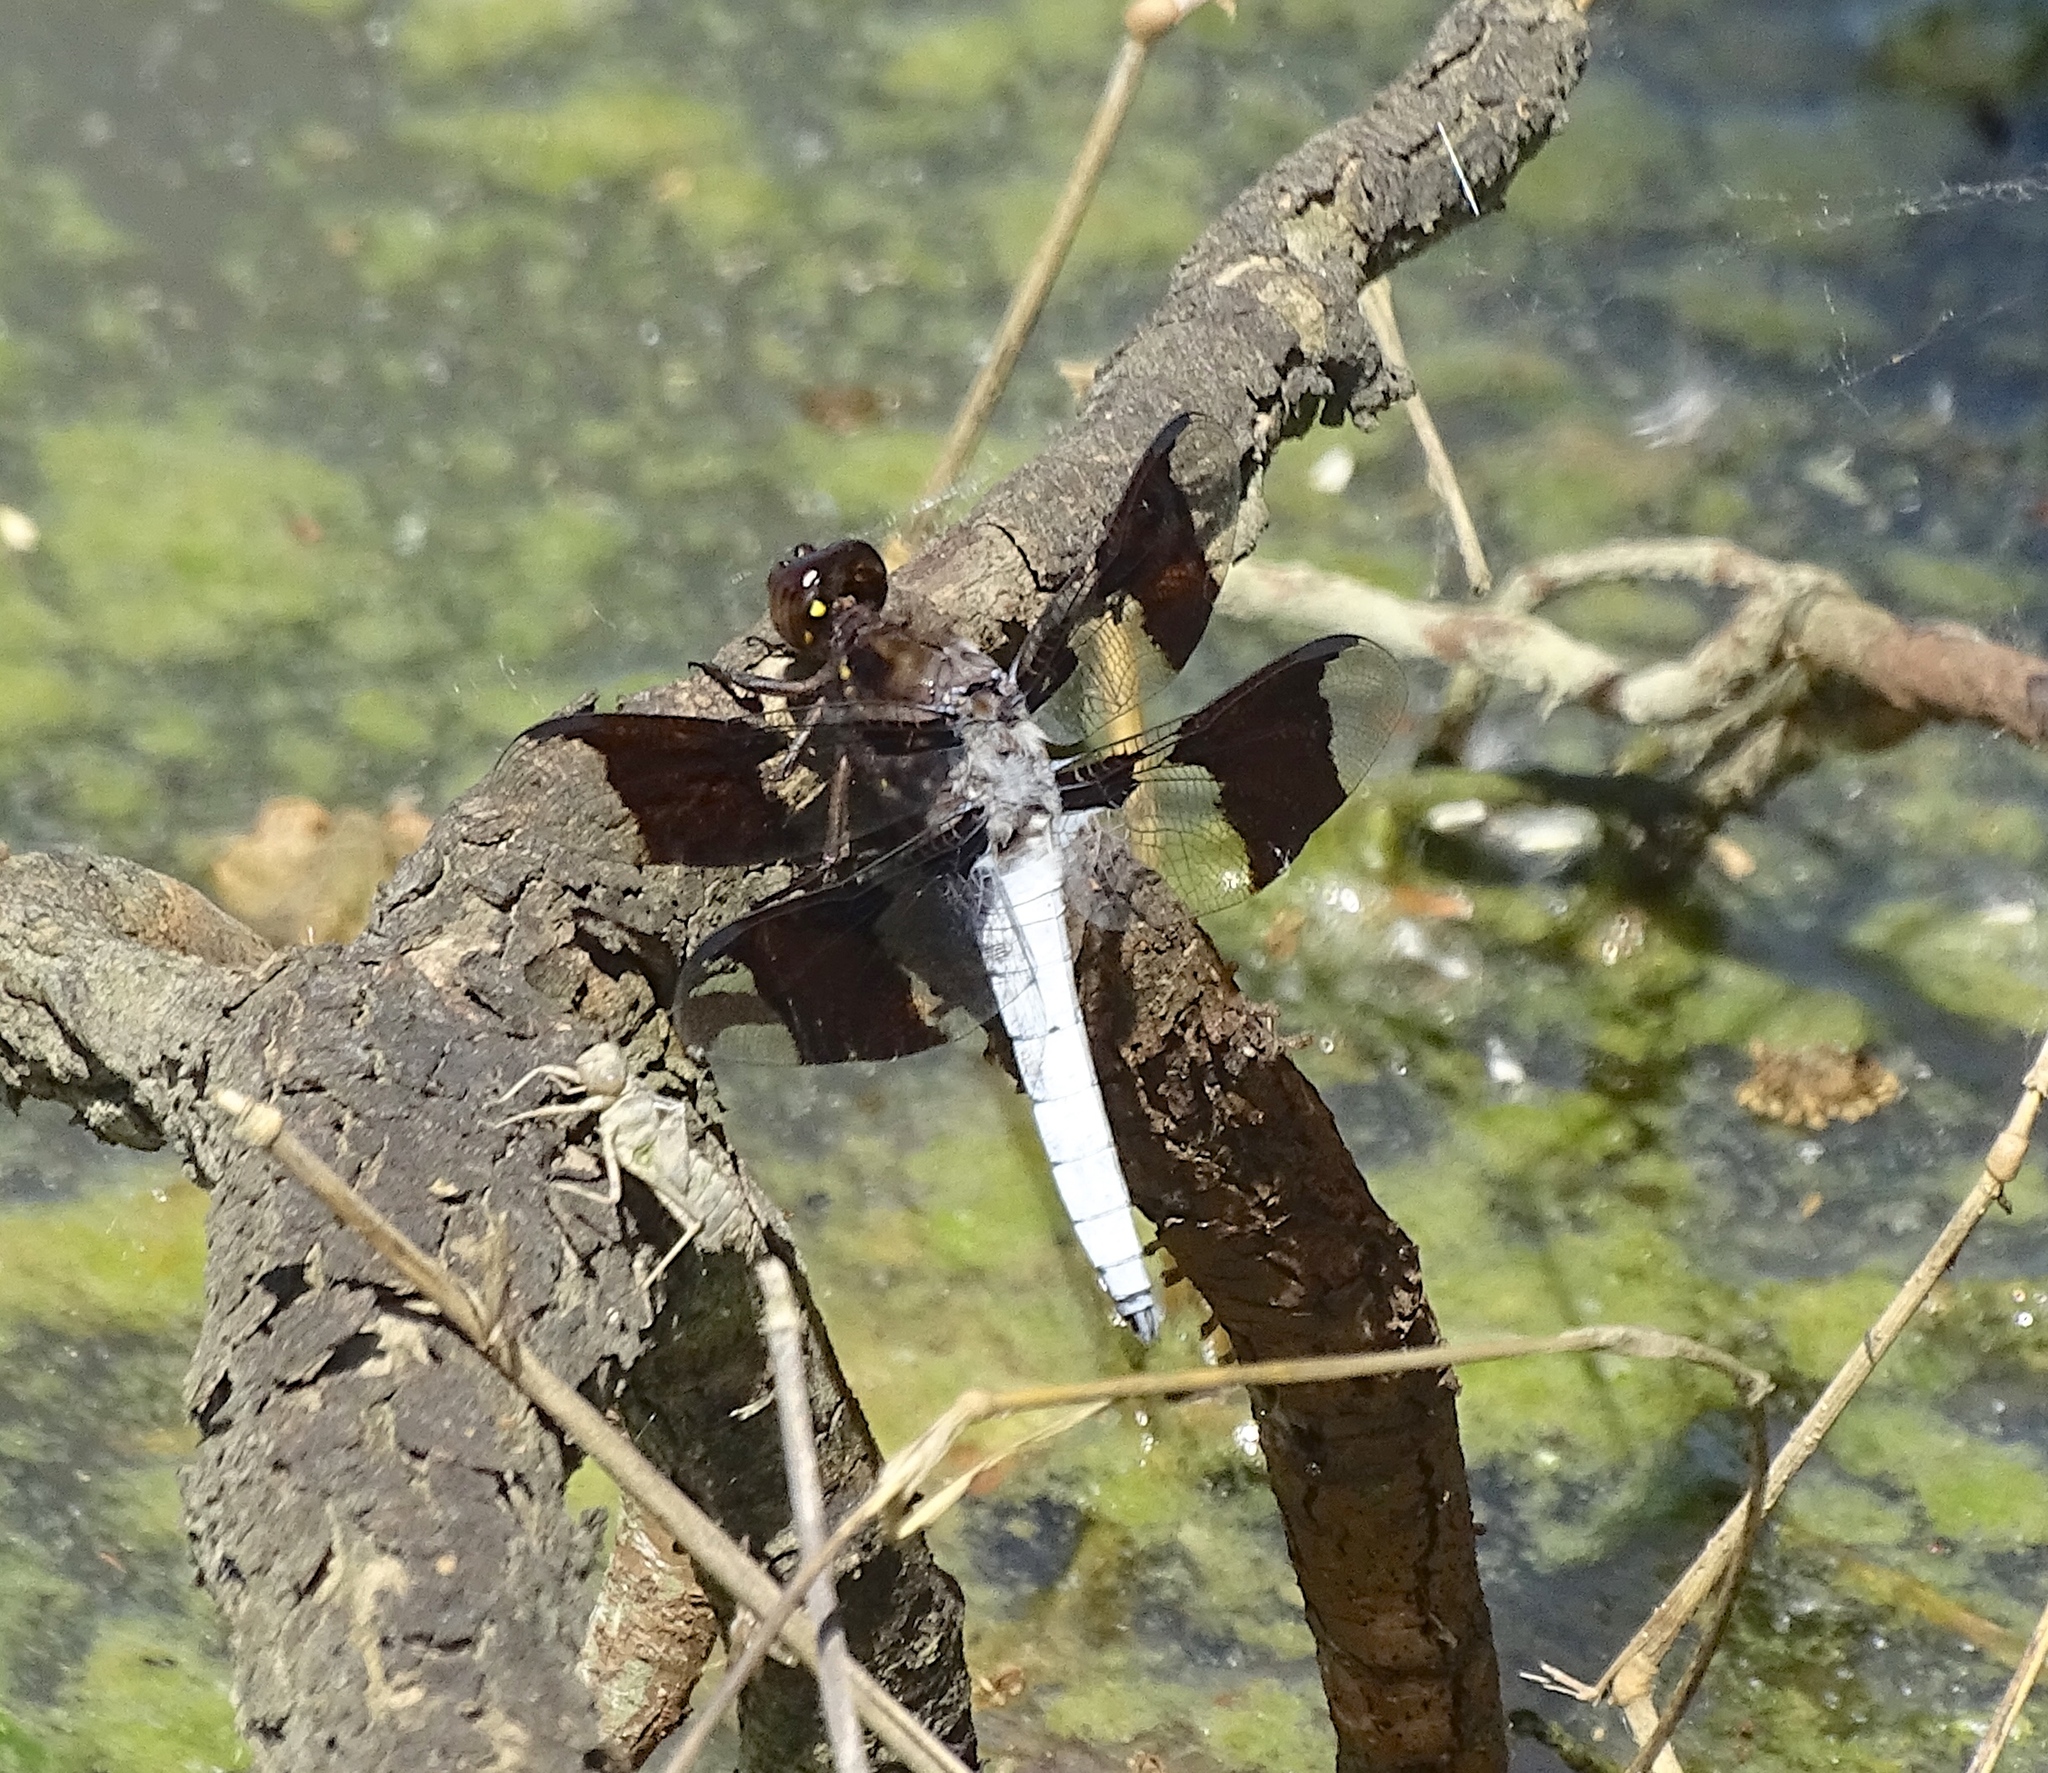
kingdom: Animalia
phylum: Arthropoda
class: Insecta
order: Odonata
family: Libellulidae
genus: Plathemis
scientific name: Plathemis lydia
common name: Common whitetail
